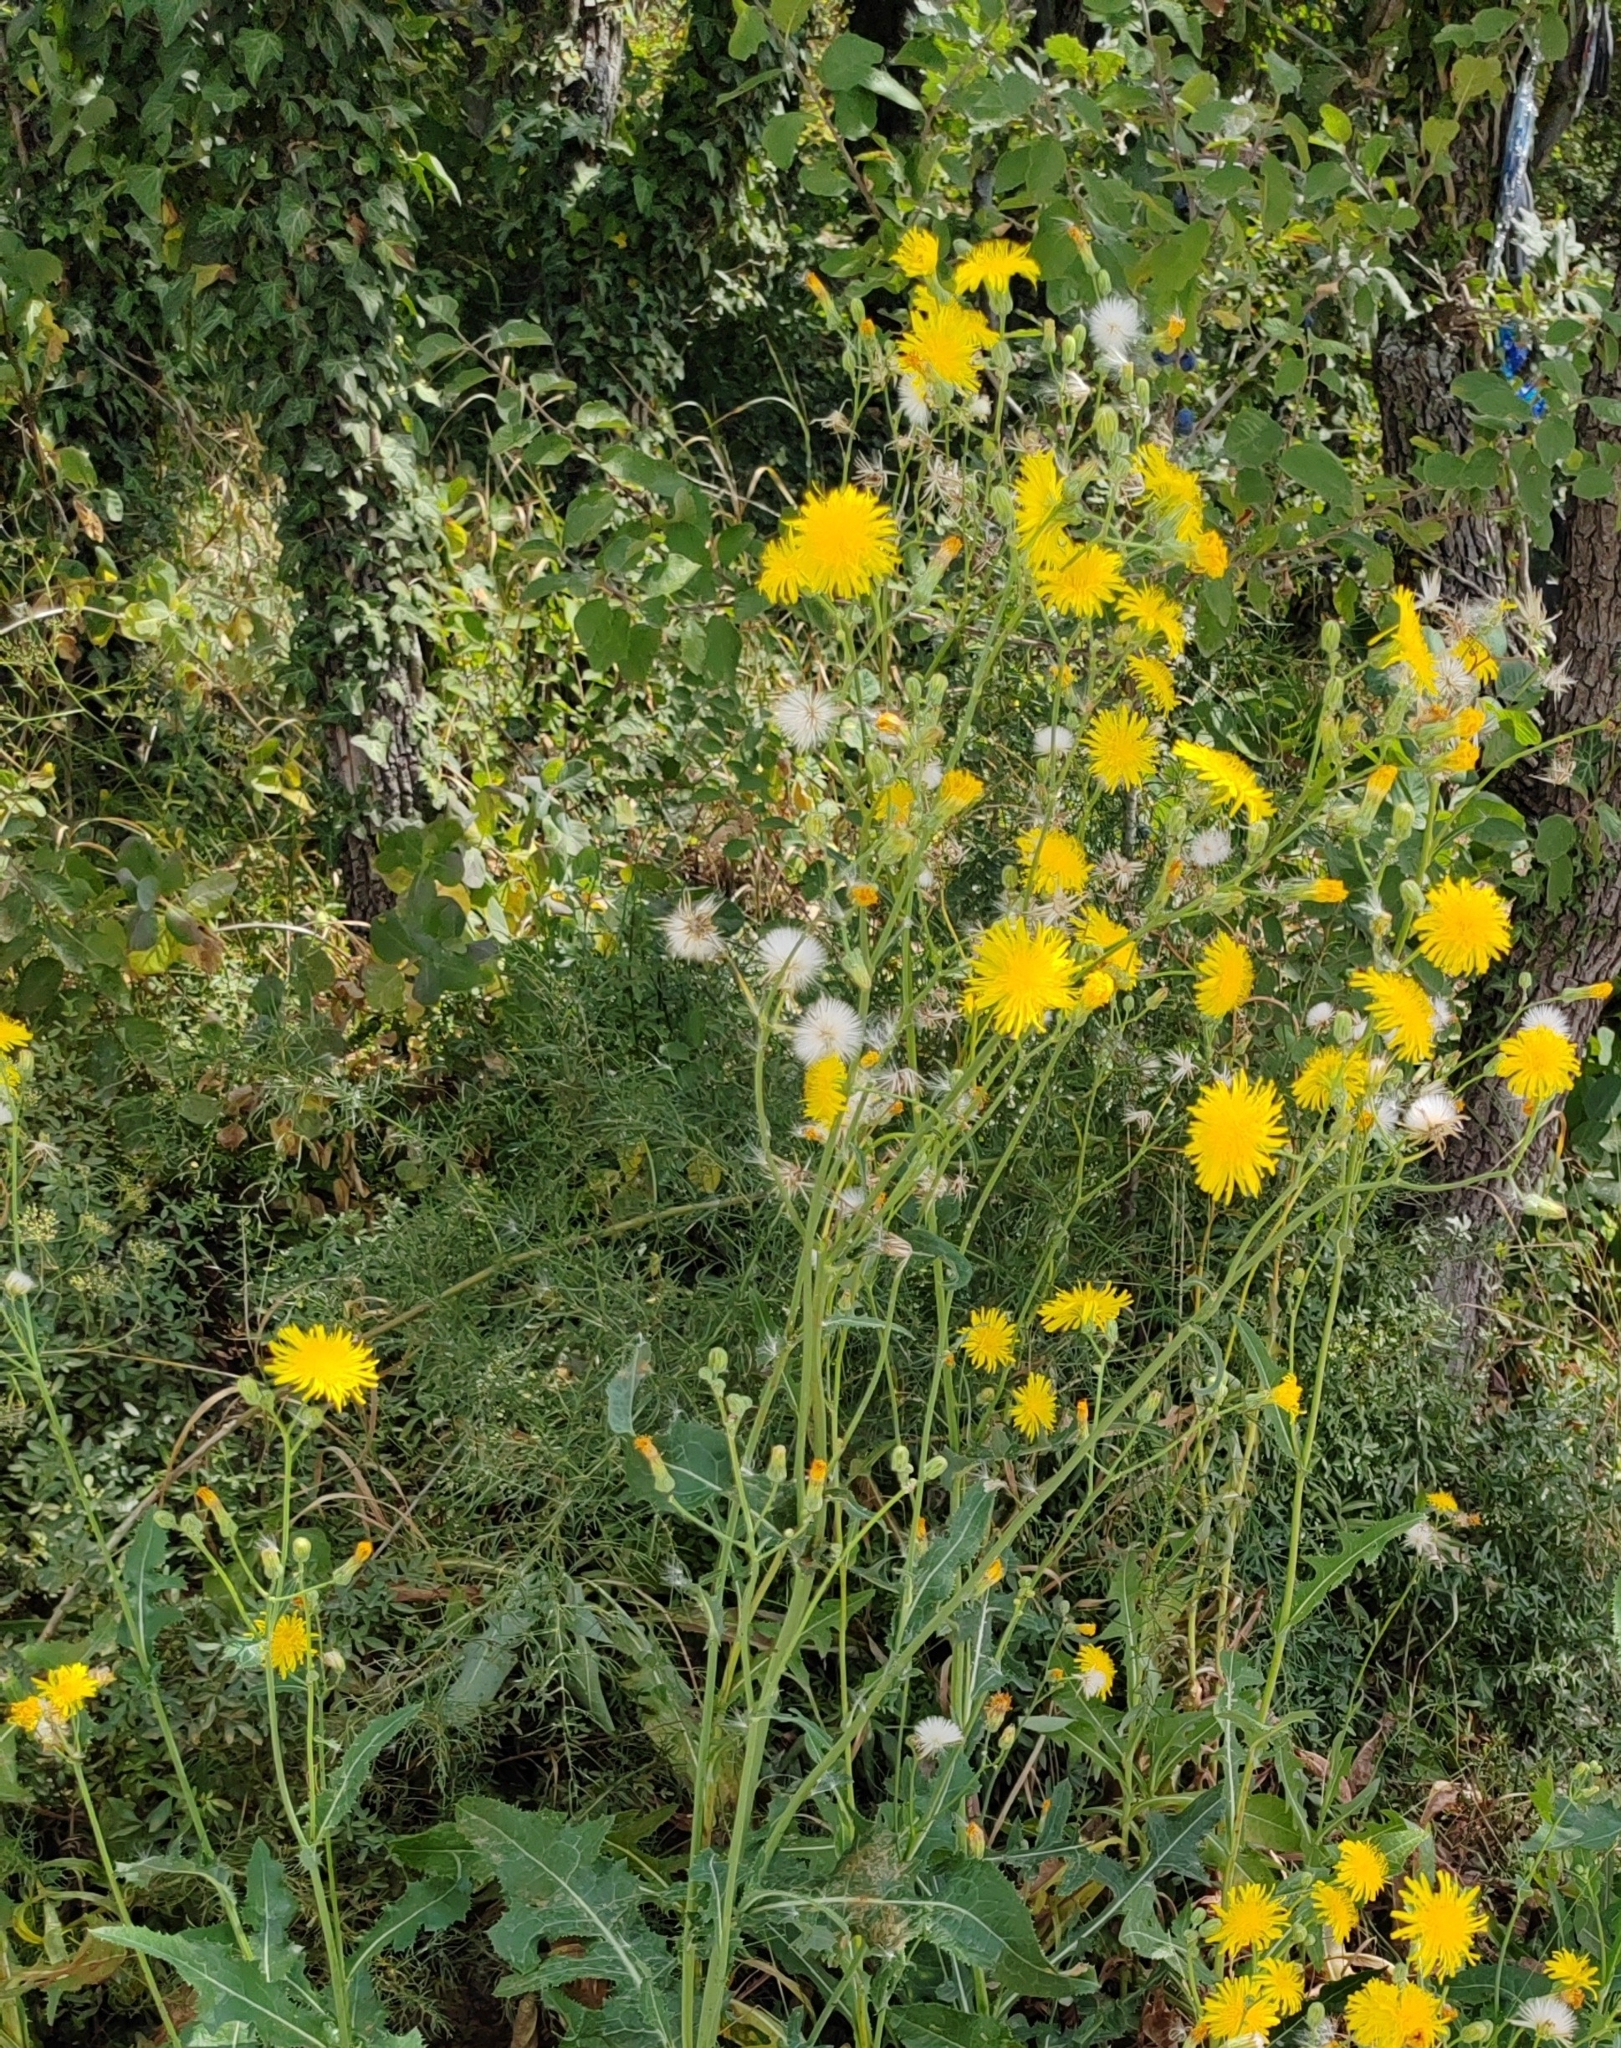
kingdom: Plantae
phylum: Tracheophyta
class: Magnoliopsida
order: Asterales
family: Asteraceae
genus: Sonchus
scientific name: Sonchus arvensis
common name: Perennial sow-thistle
